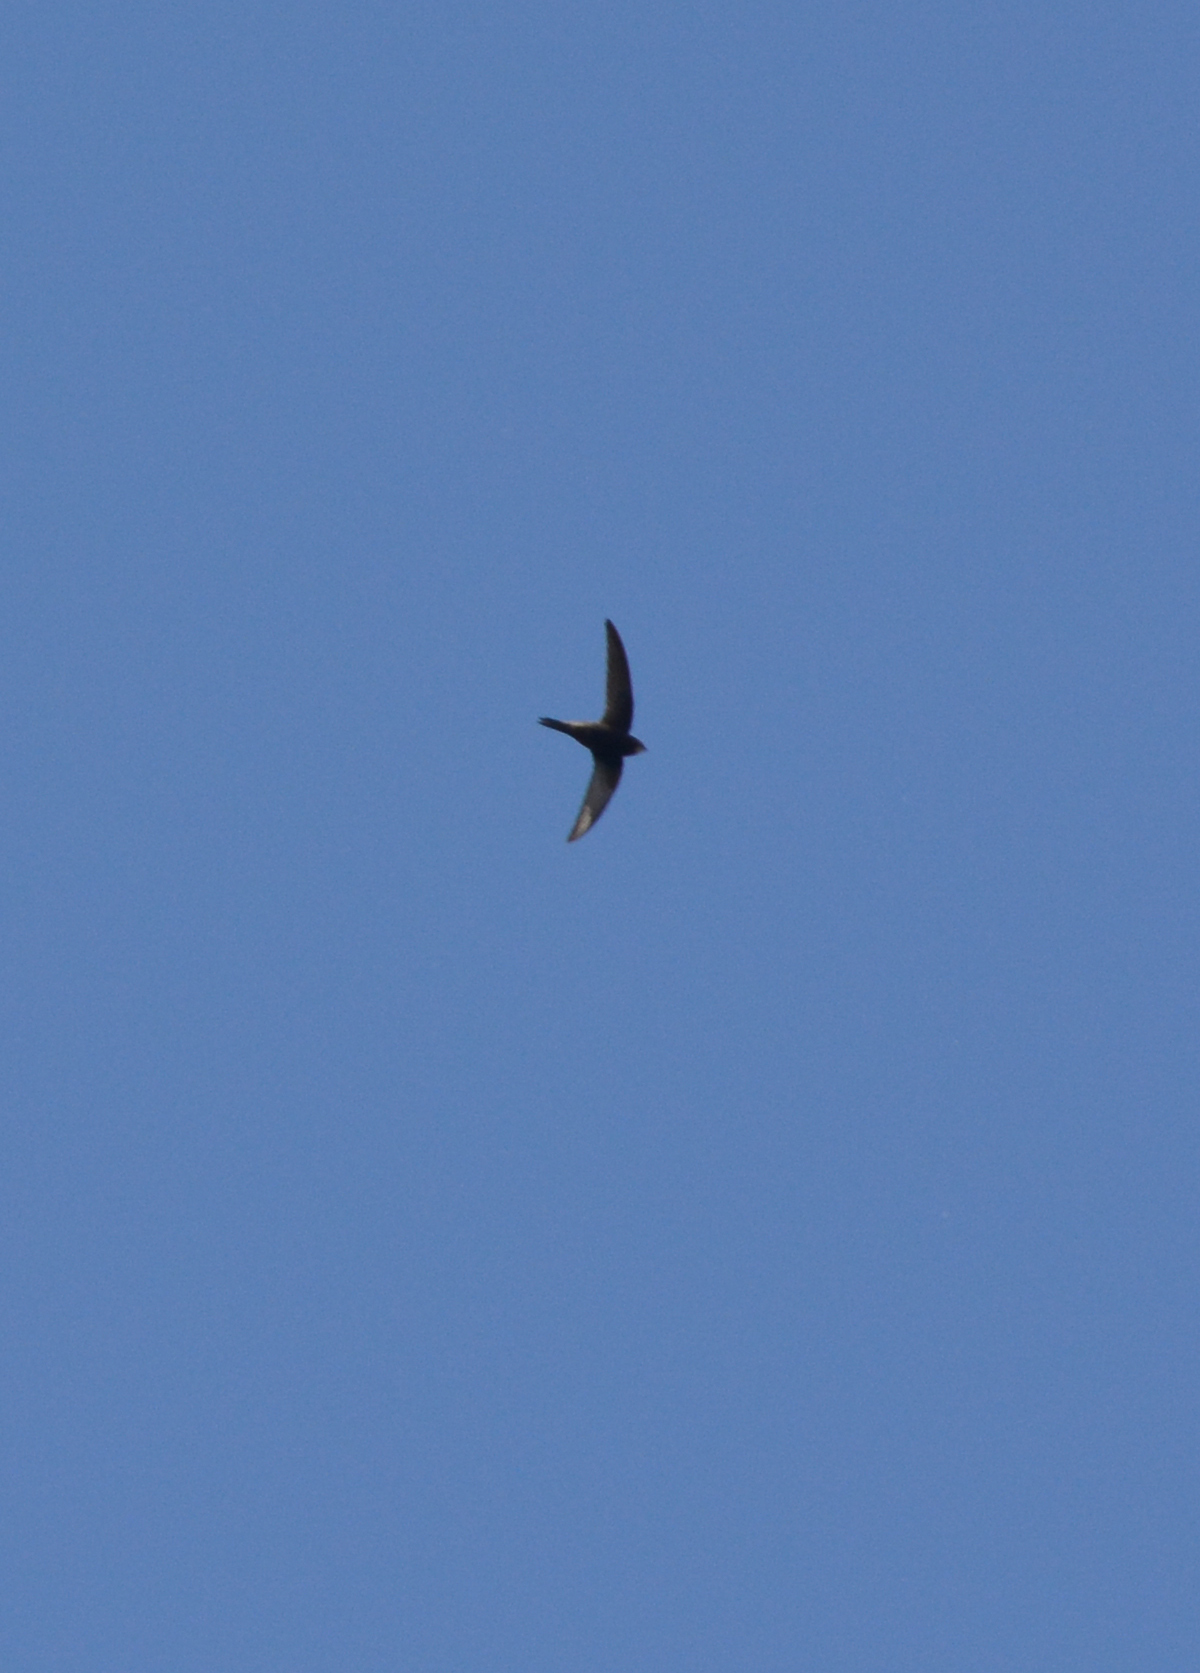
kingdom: Animalia
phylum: Chordata
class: Aves
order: Apodiformes
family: Apodidae
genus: Apus
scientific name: Apus apus
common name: Common swift
